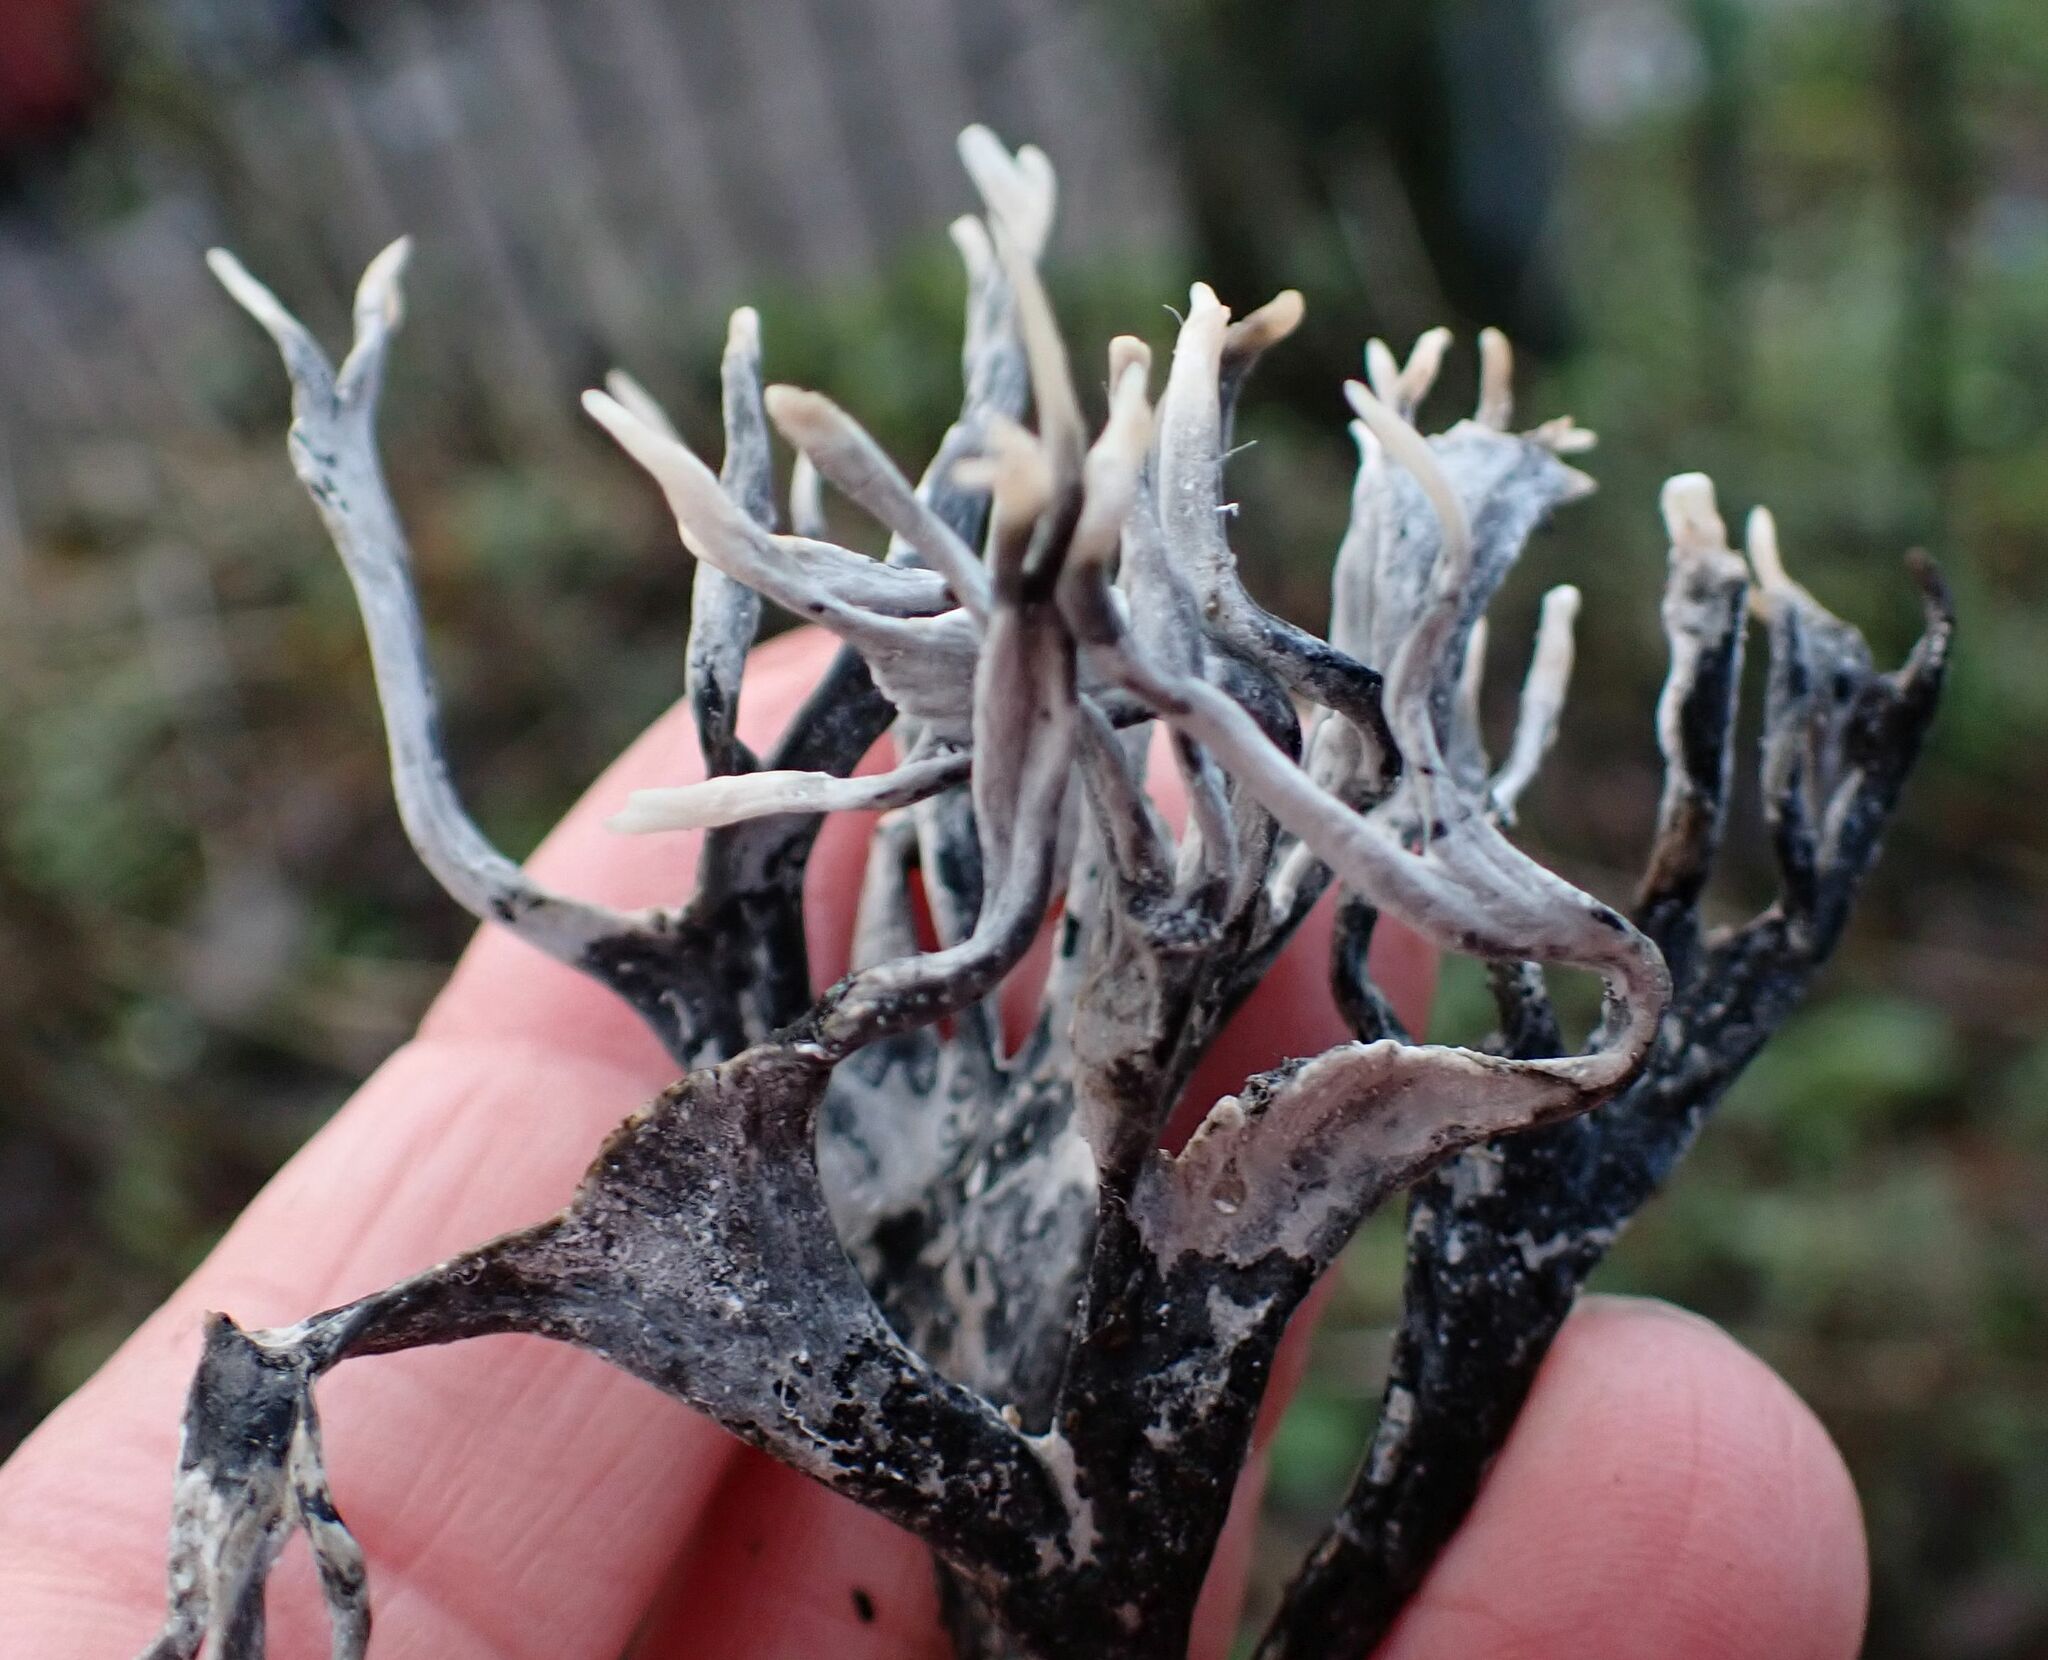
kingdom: Fungi
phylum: Ascomycota
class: Sordariomycetes
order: Xylariales
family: Xylariaceae
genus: Xylaria
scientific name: Xylaria hypoxylon
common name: Candle-snuff fungus
